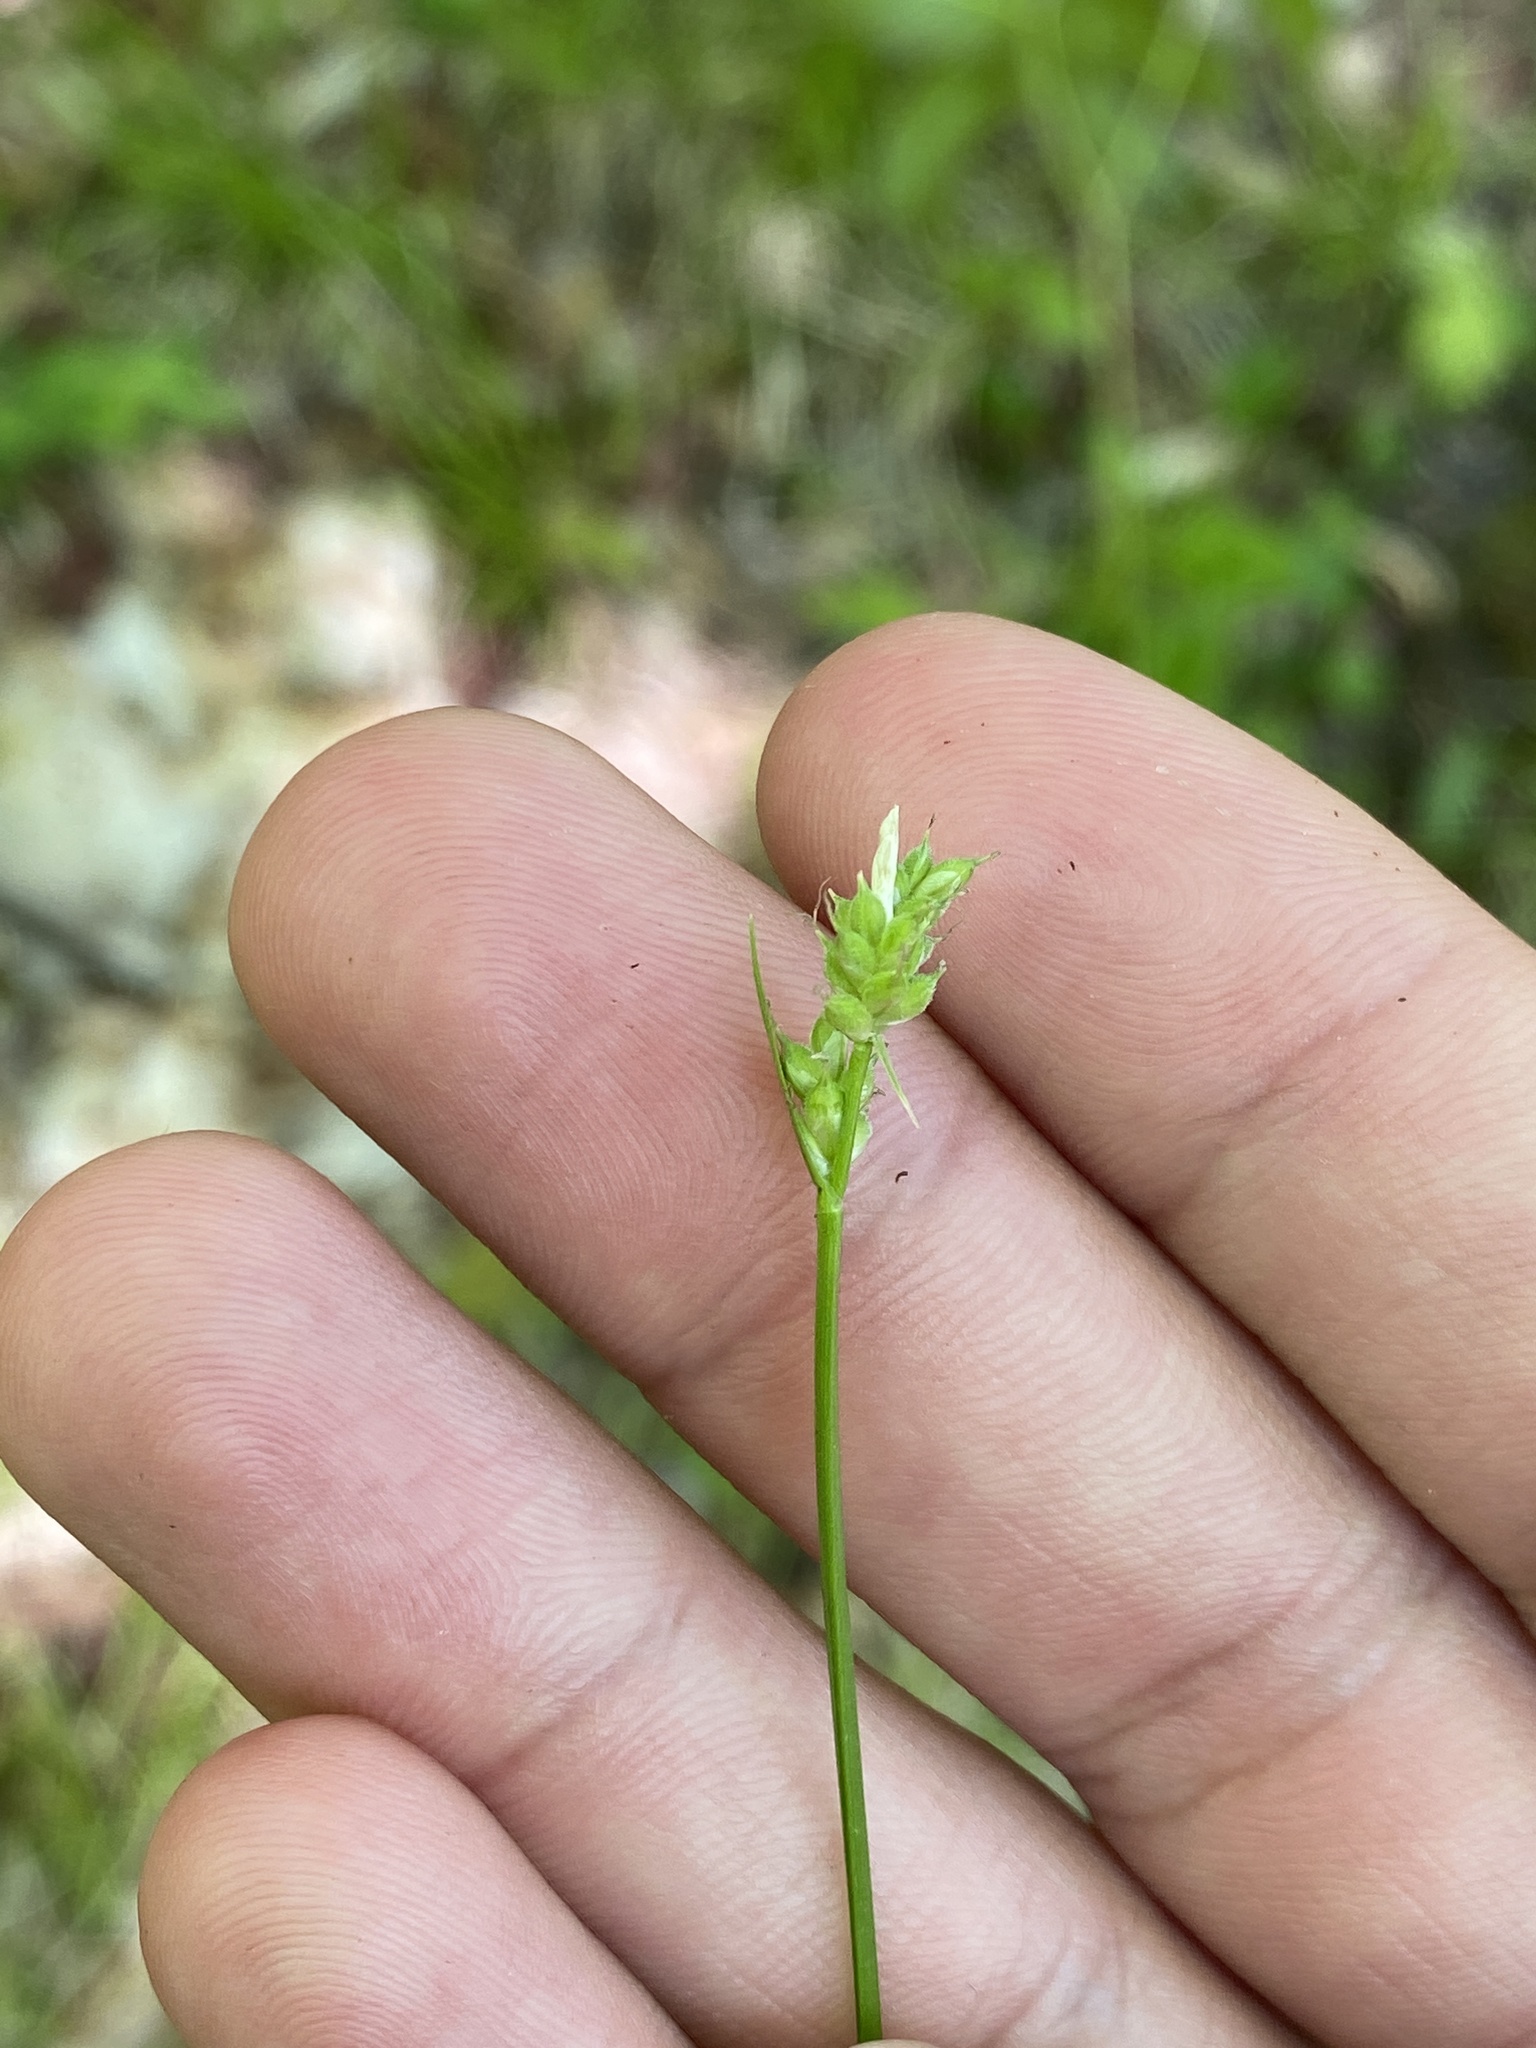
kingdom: Plantae
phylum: Tracheophyta
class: Liliopsida
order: Poales
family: Cyperaceae
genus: Carex
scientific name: Carex peckii
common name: Peck's oak sedge
